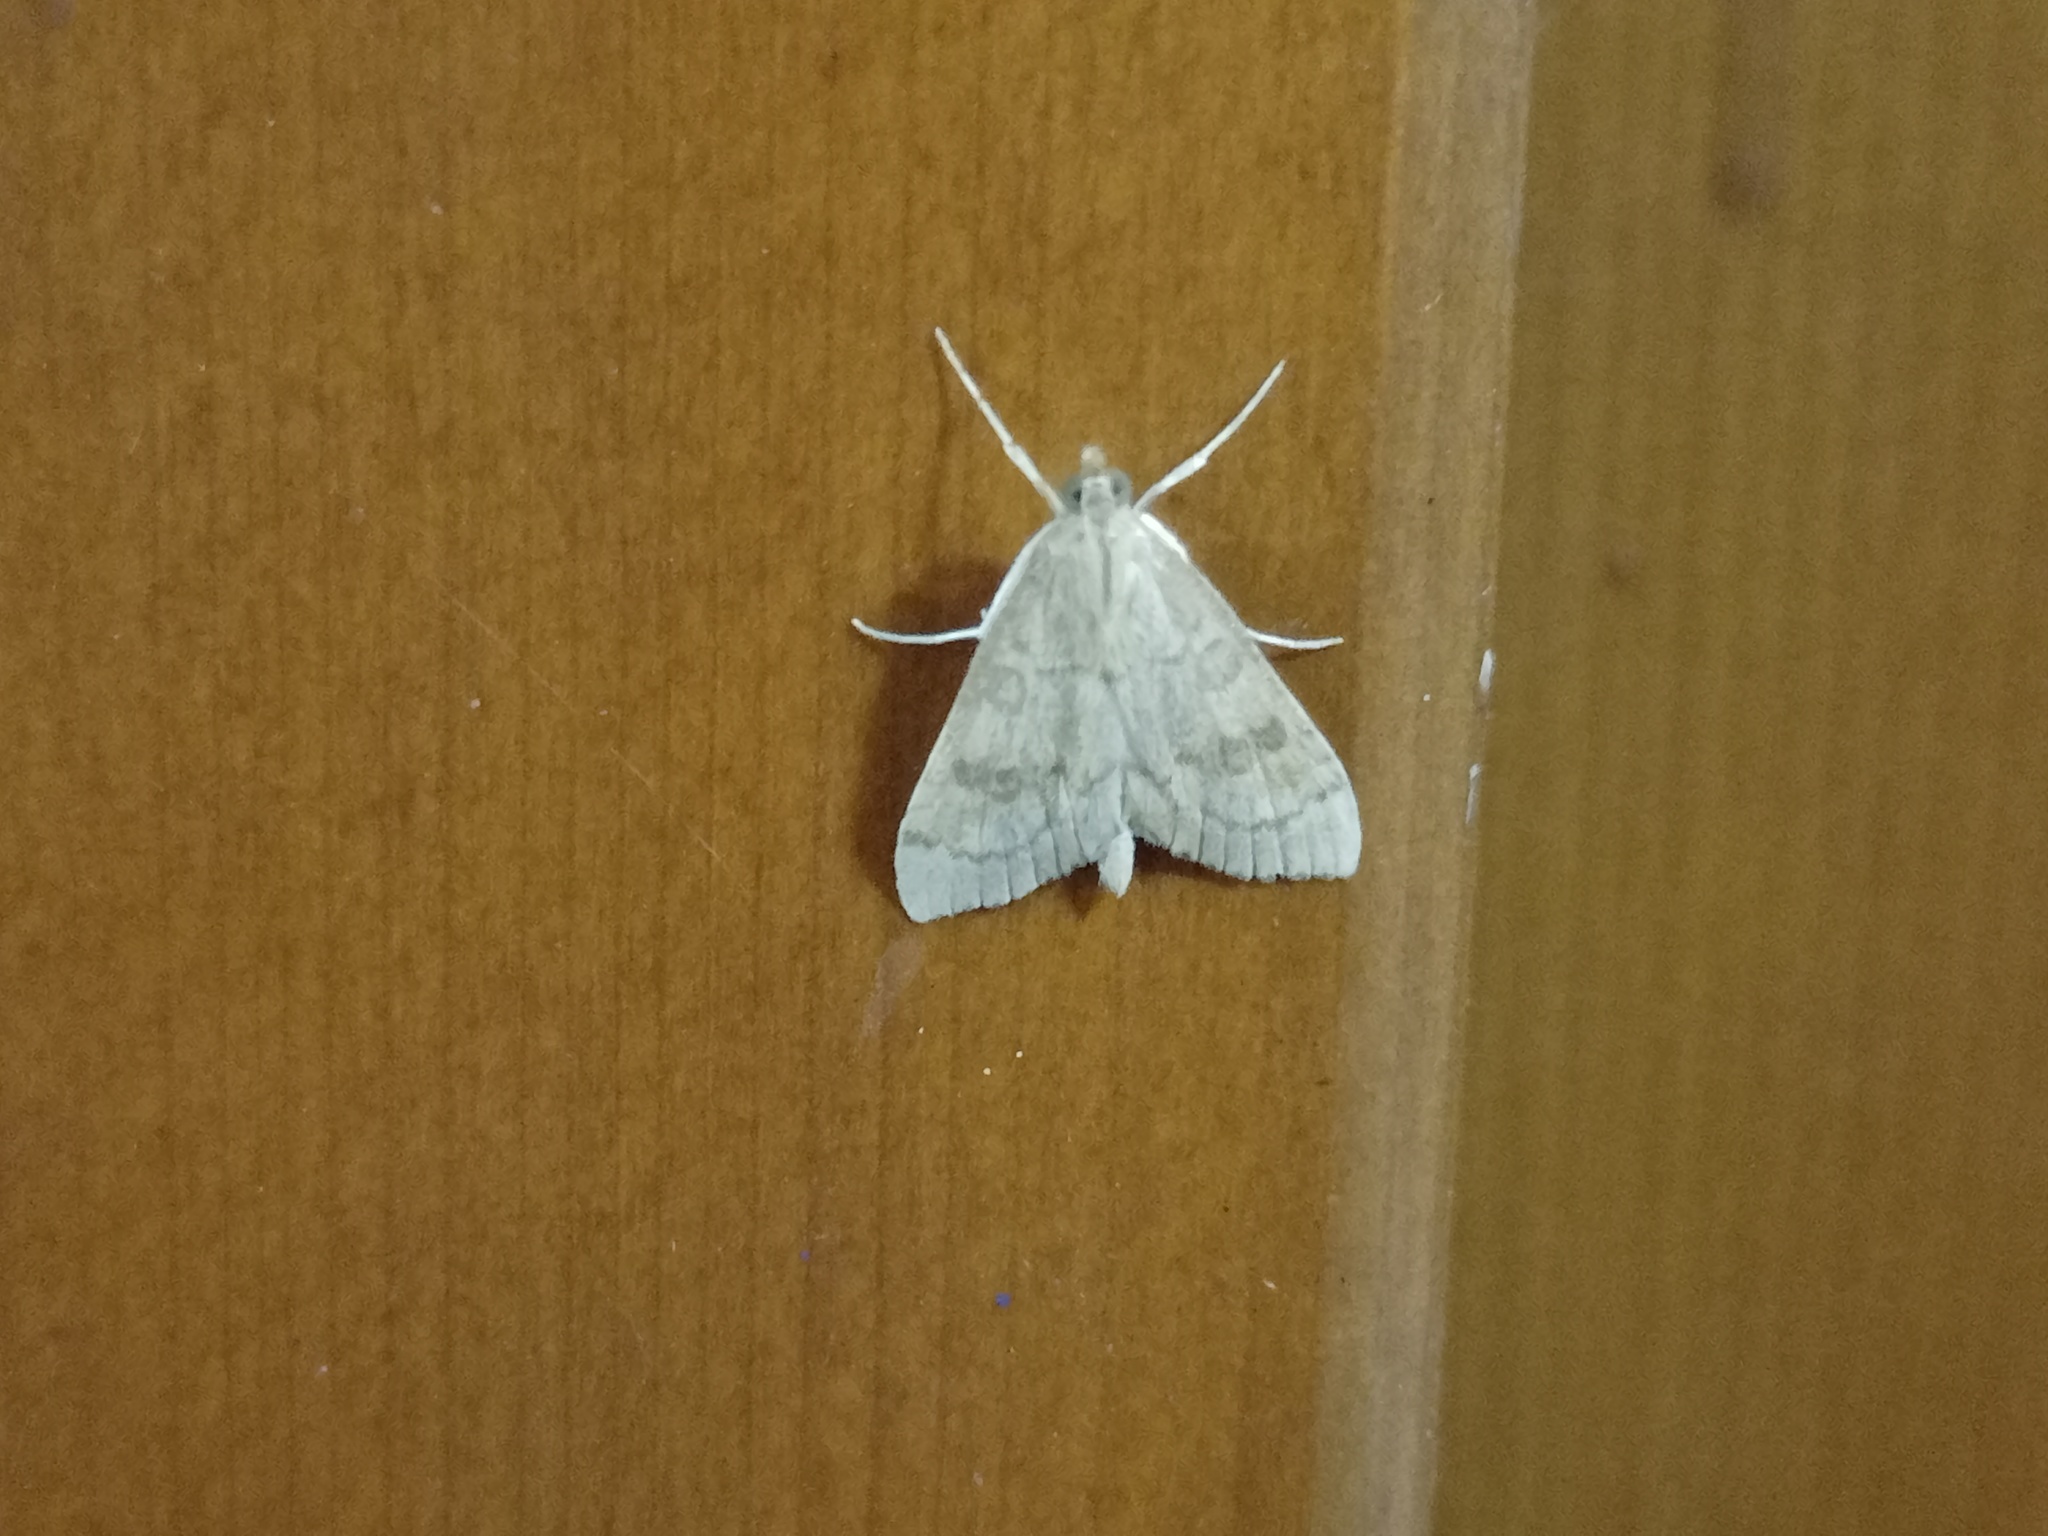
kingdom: Animalia
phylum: Arthropoda
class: Insecta
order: Lepidoptera
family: Crambidae
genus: Udea
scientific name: Udea fulvalis
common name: Fulvous pearl
